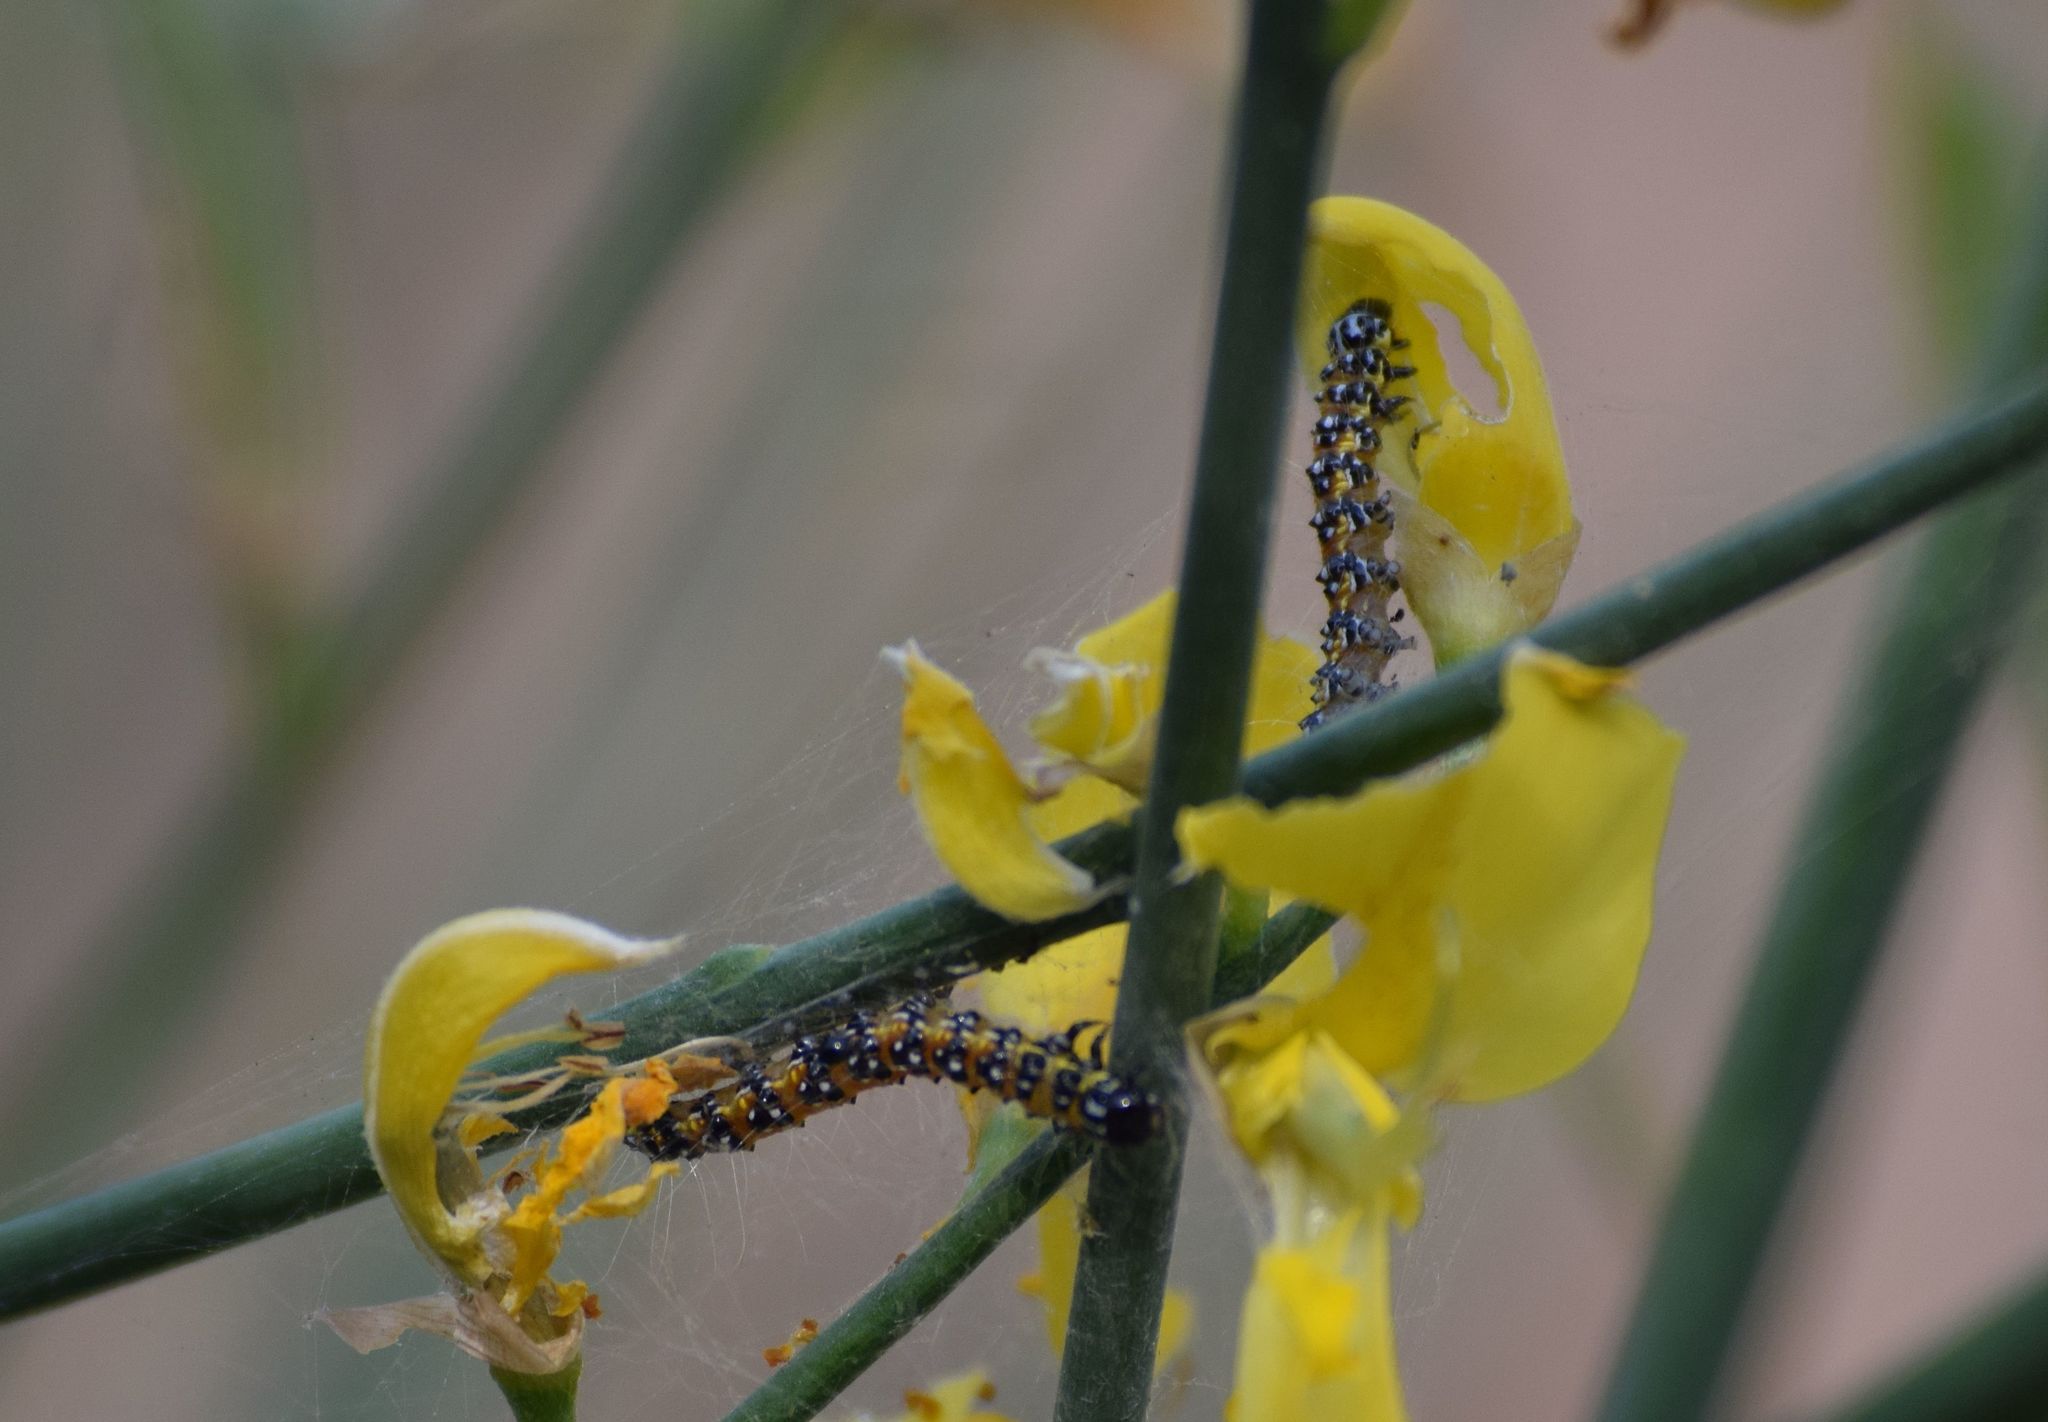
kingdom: Animalia
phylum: Arthropoda
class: Insecta
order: Lepidoptera
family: Crambidae
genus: Uresiphita
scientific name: Uresiphita reversalis
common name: Genista broom moth
